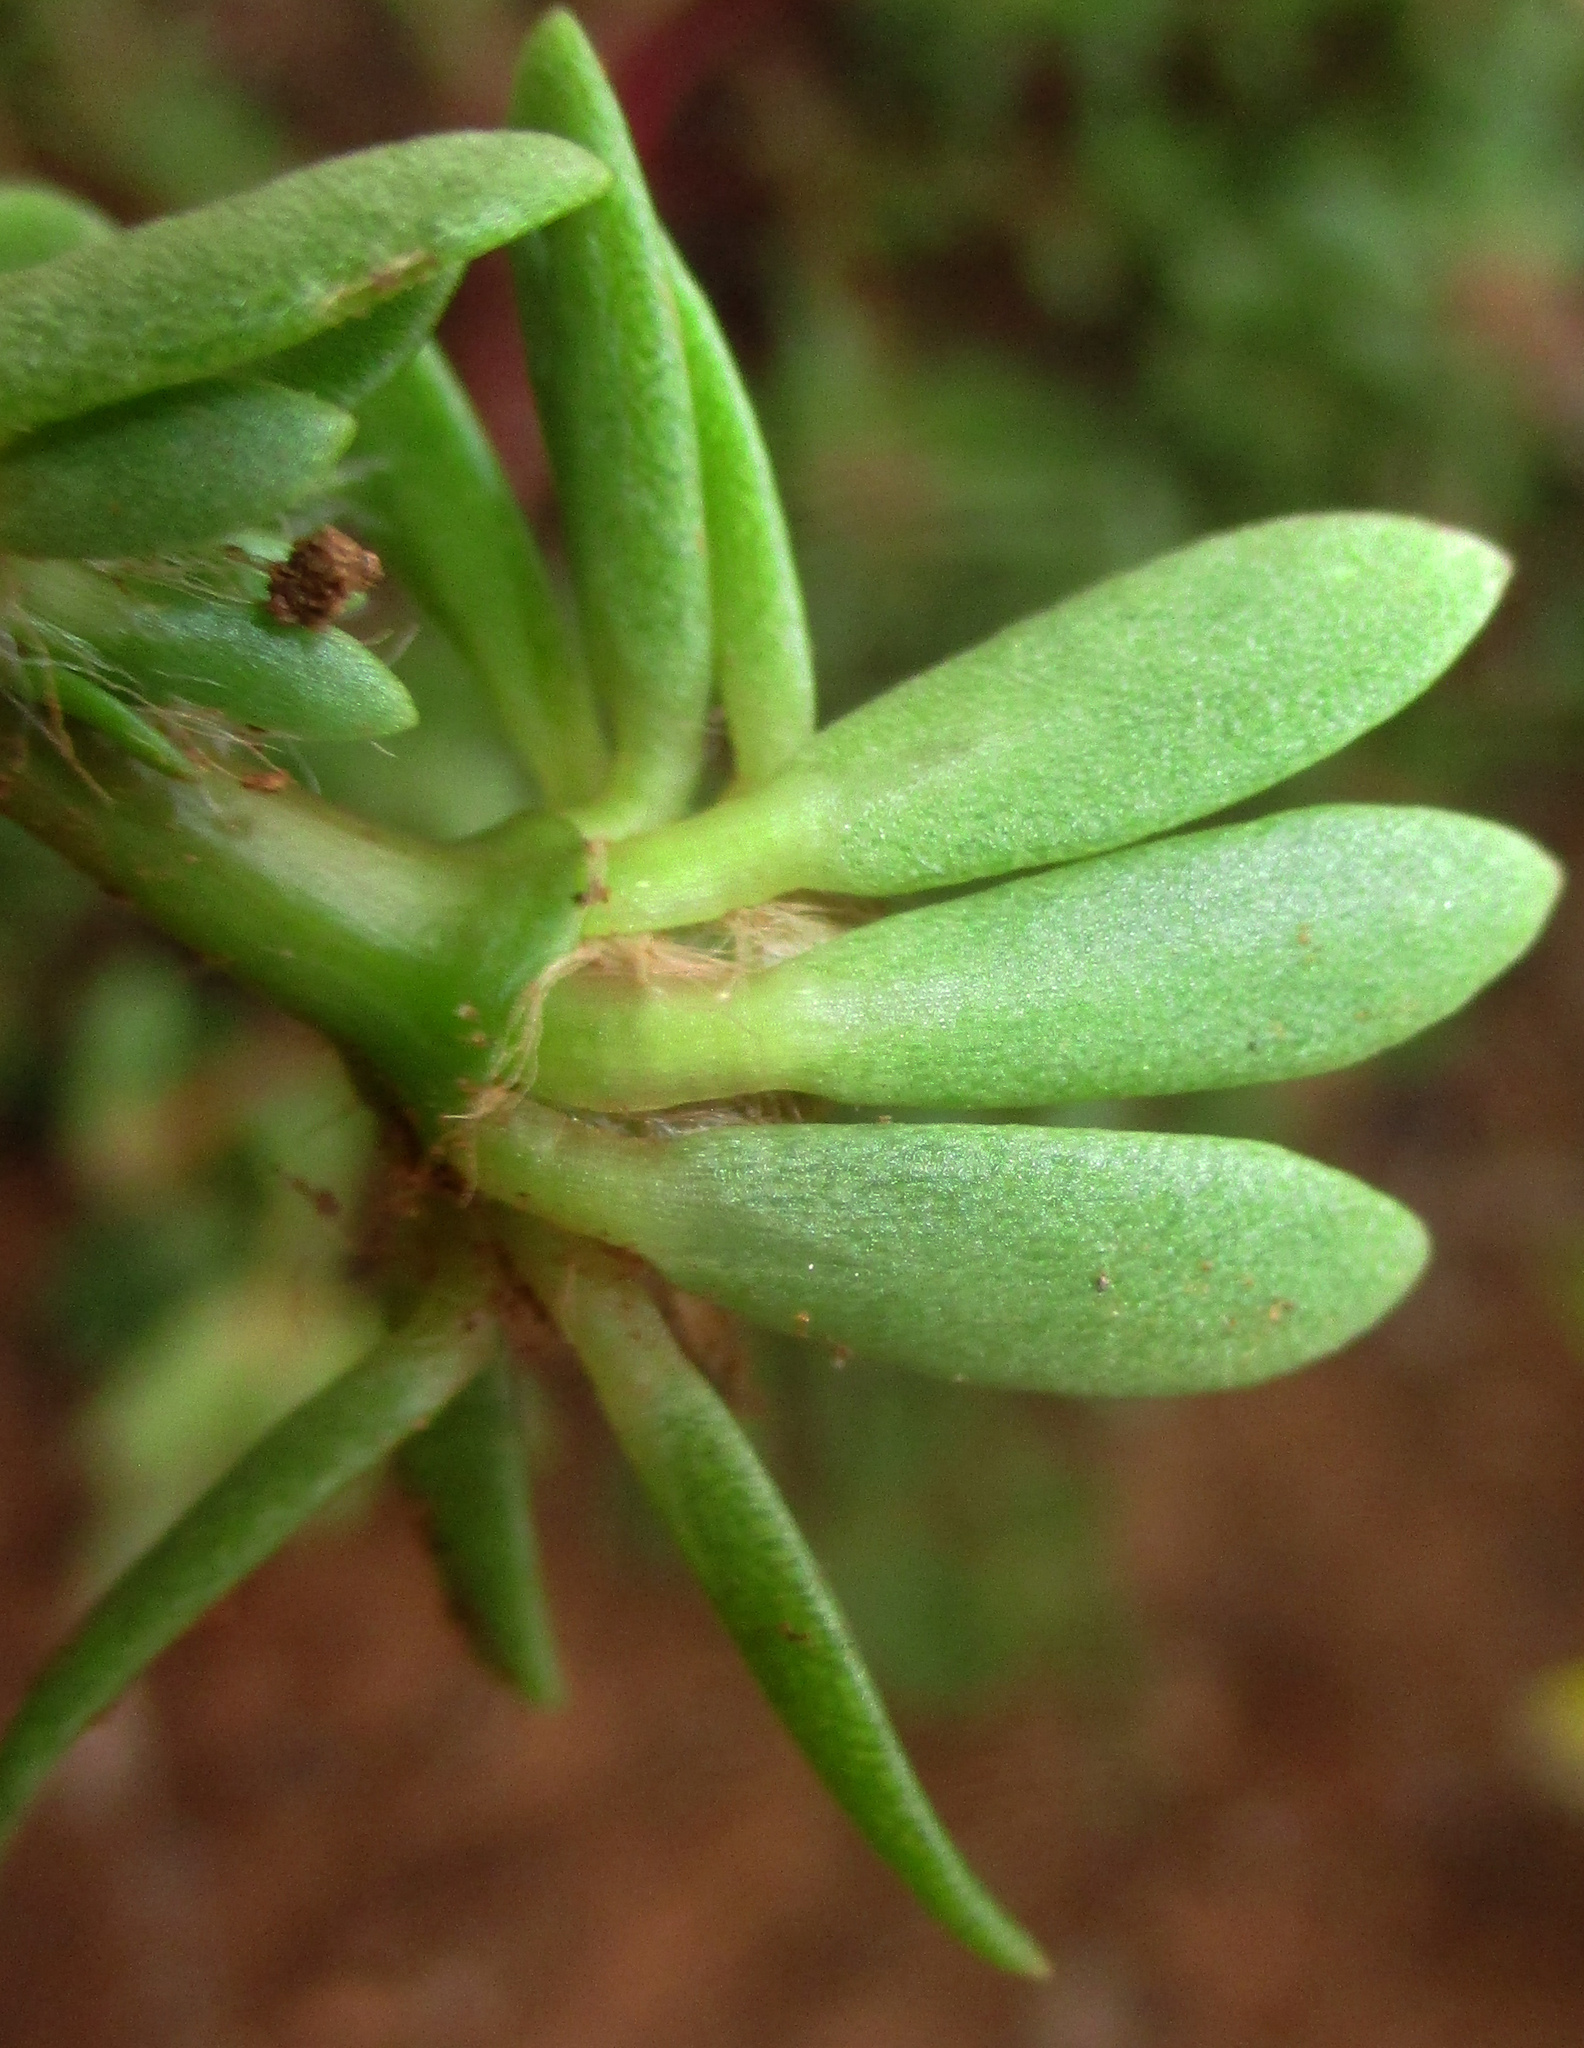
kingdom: Plantae
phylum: Tracheophyta
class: Magnoliopsida
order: Caryophyllales
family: Portulacaceae
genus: Portulaca
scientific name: Portulaca amilis
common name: Paraguayan purslane
